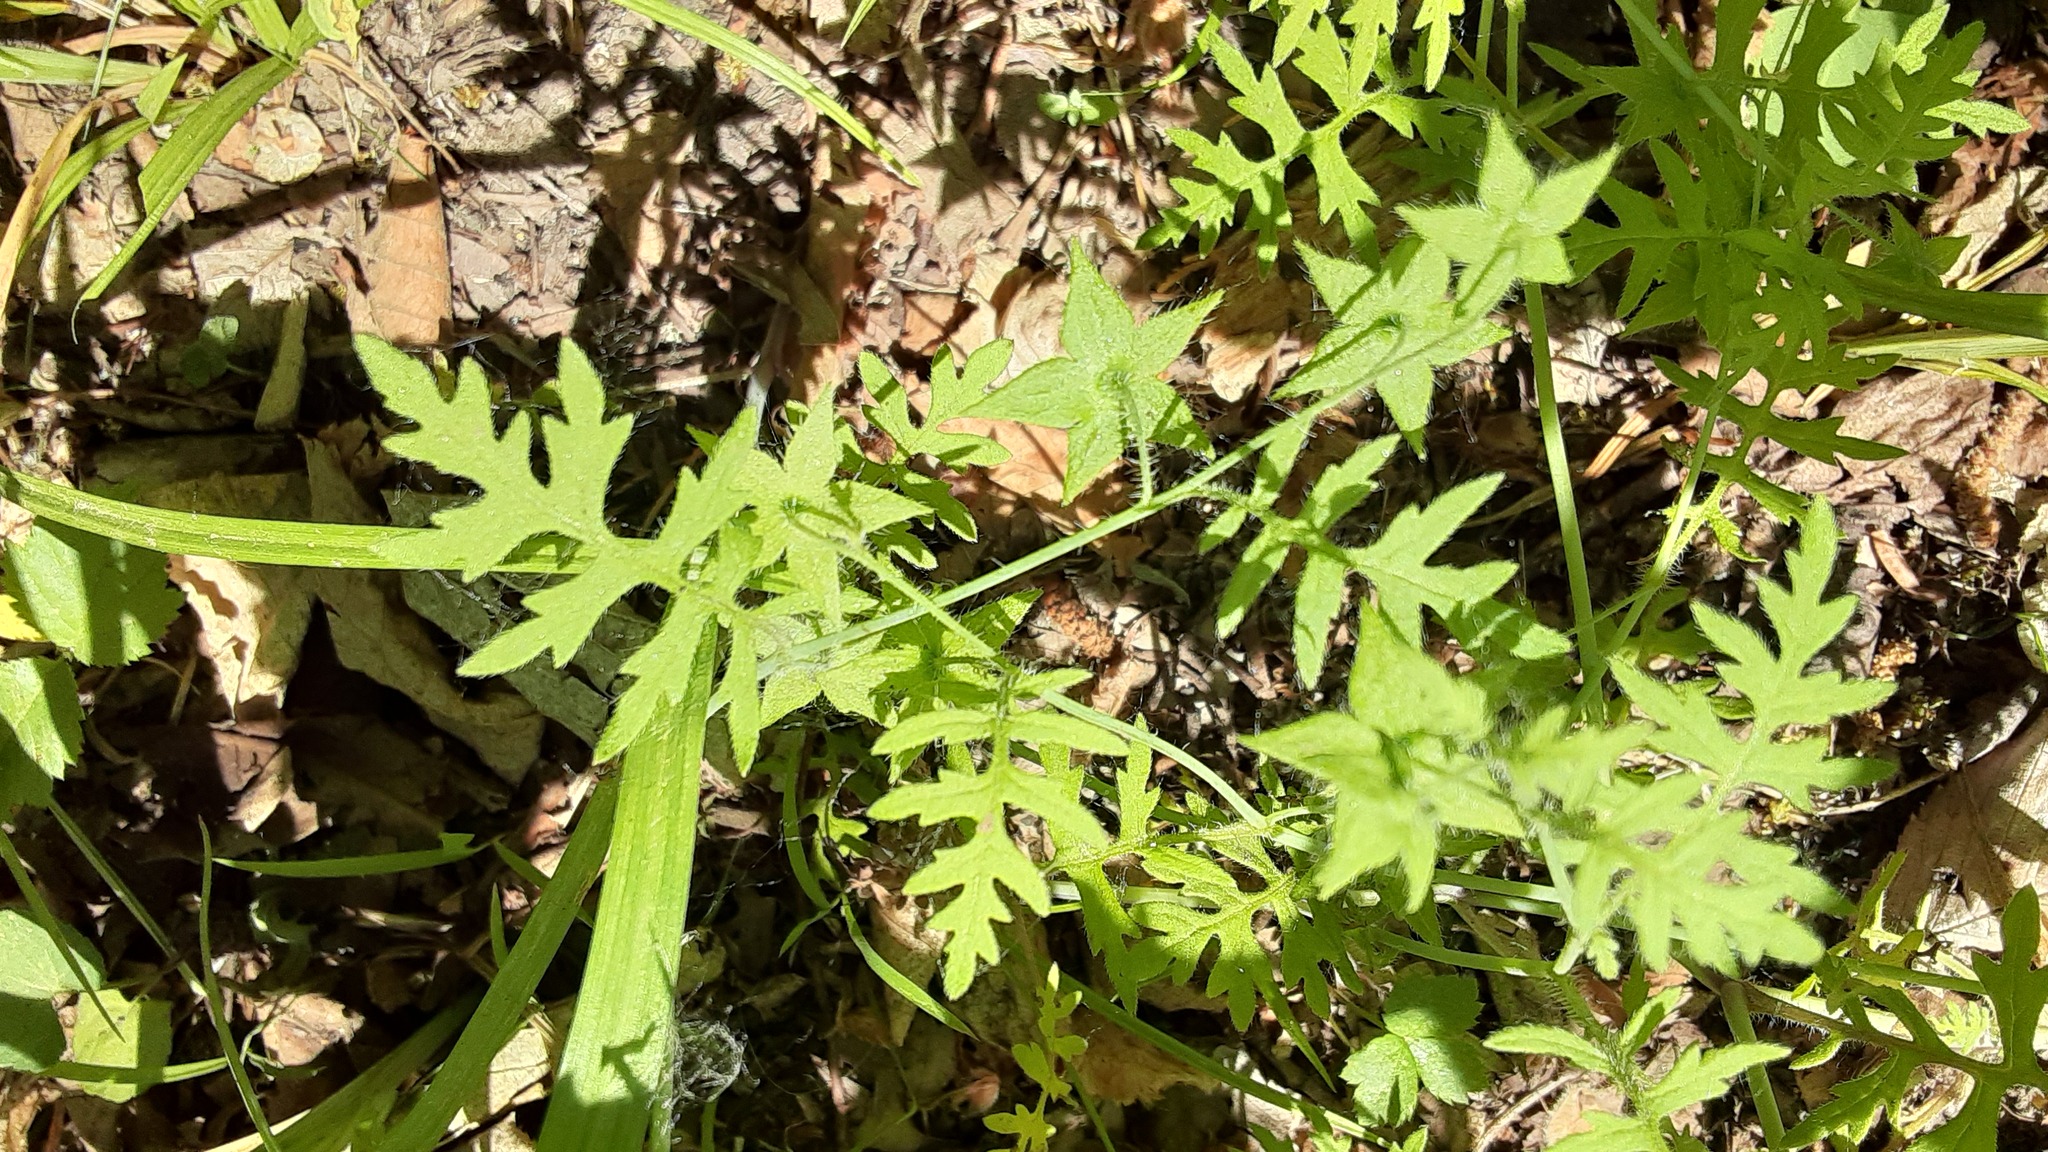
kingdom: Plantae
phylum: Tracheophyta
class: Magnoliopsida
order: Boraginales
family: Hydrophyllaceae
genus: Ellisia
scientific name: Ellisia nyctelea
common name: Aunt lucy
